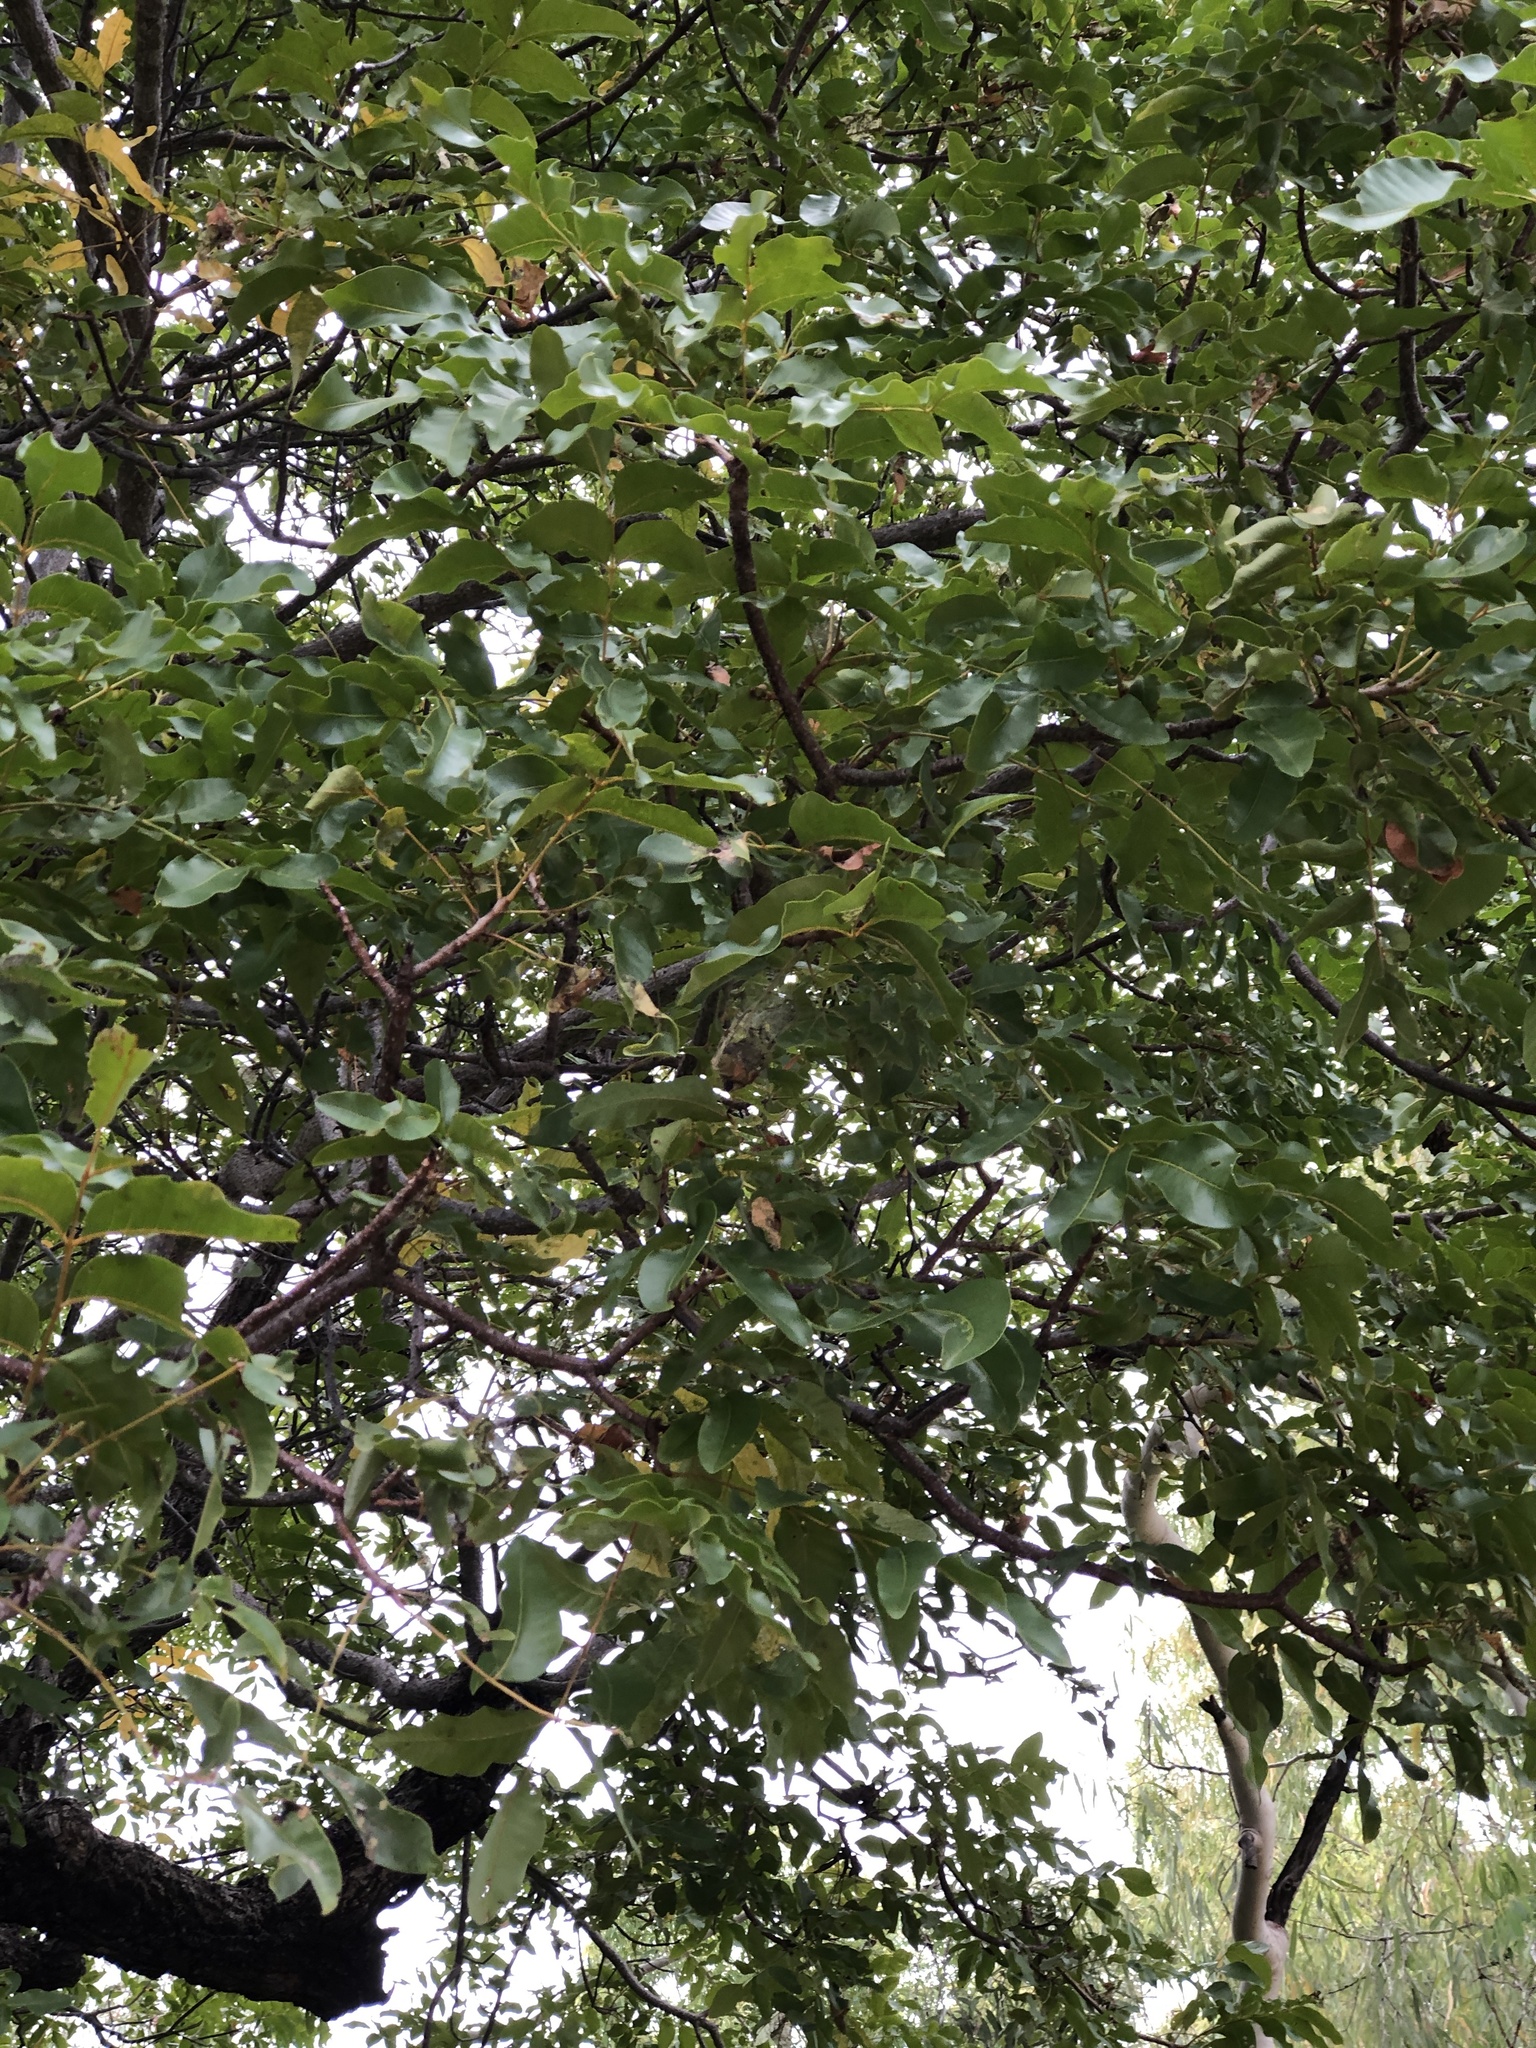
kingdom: Plantae
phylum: Tracheophyta
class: Magnoliopsida
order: Sapindales
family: Anacardiaceae
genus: Pleiogynium
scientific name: Pleiogynium timoriense
